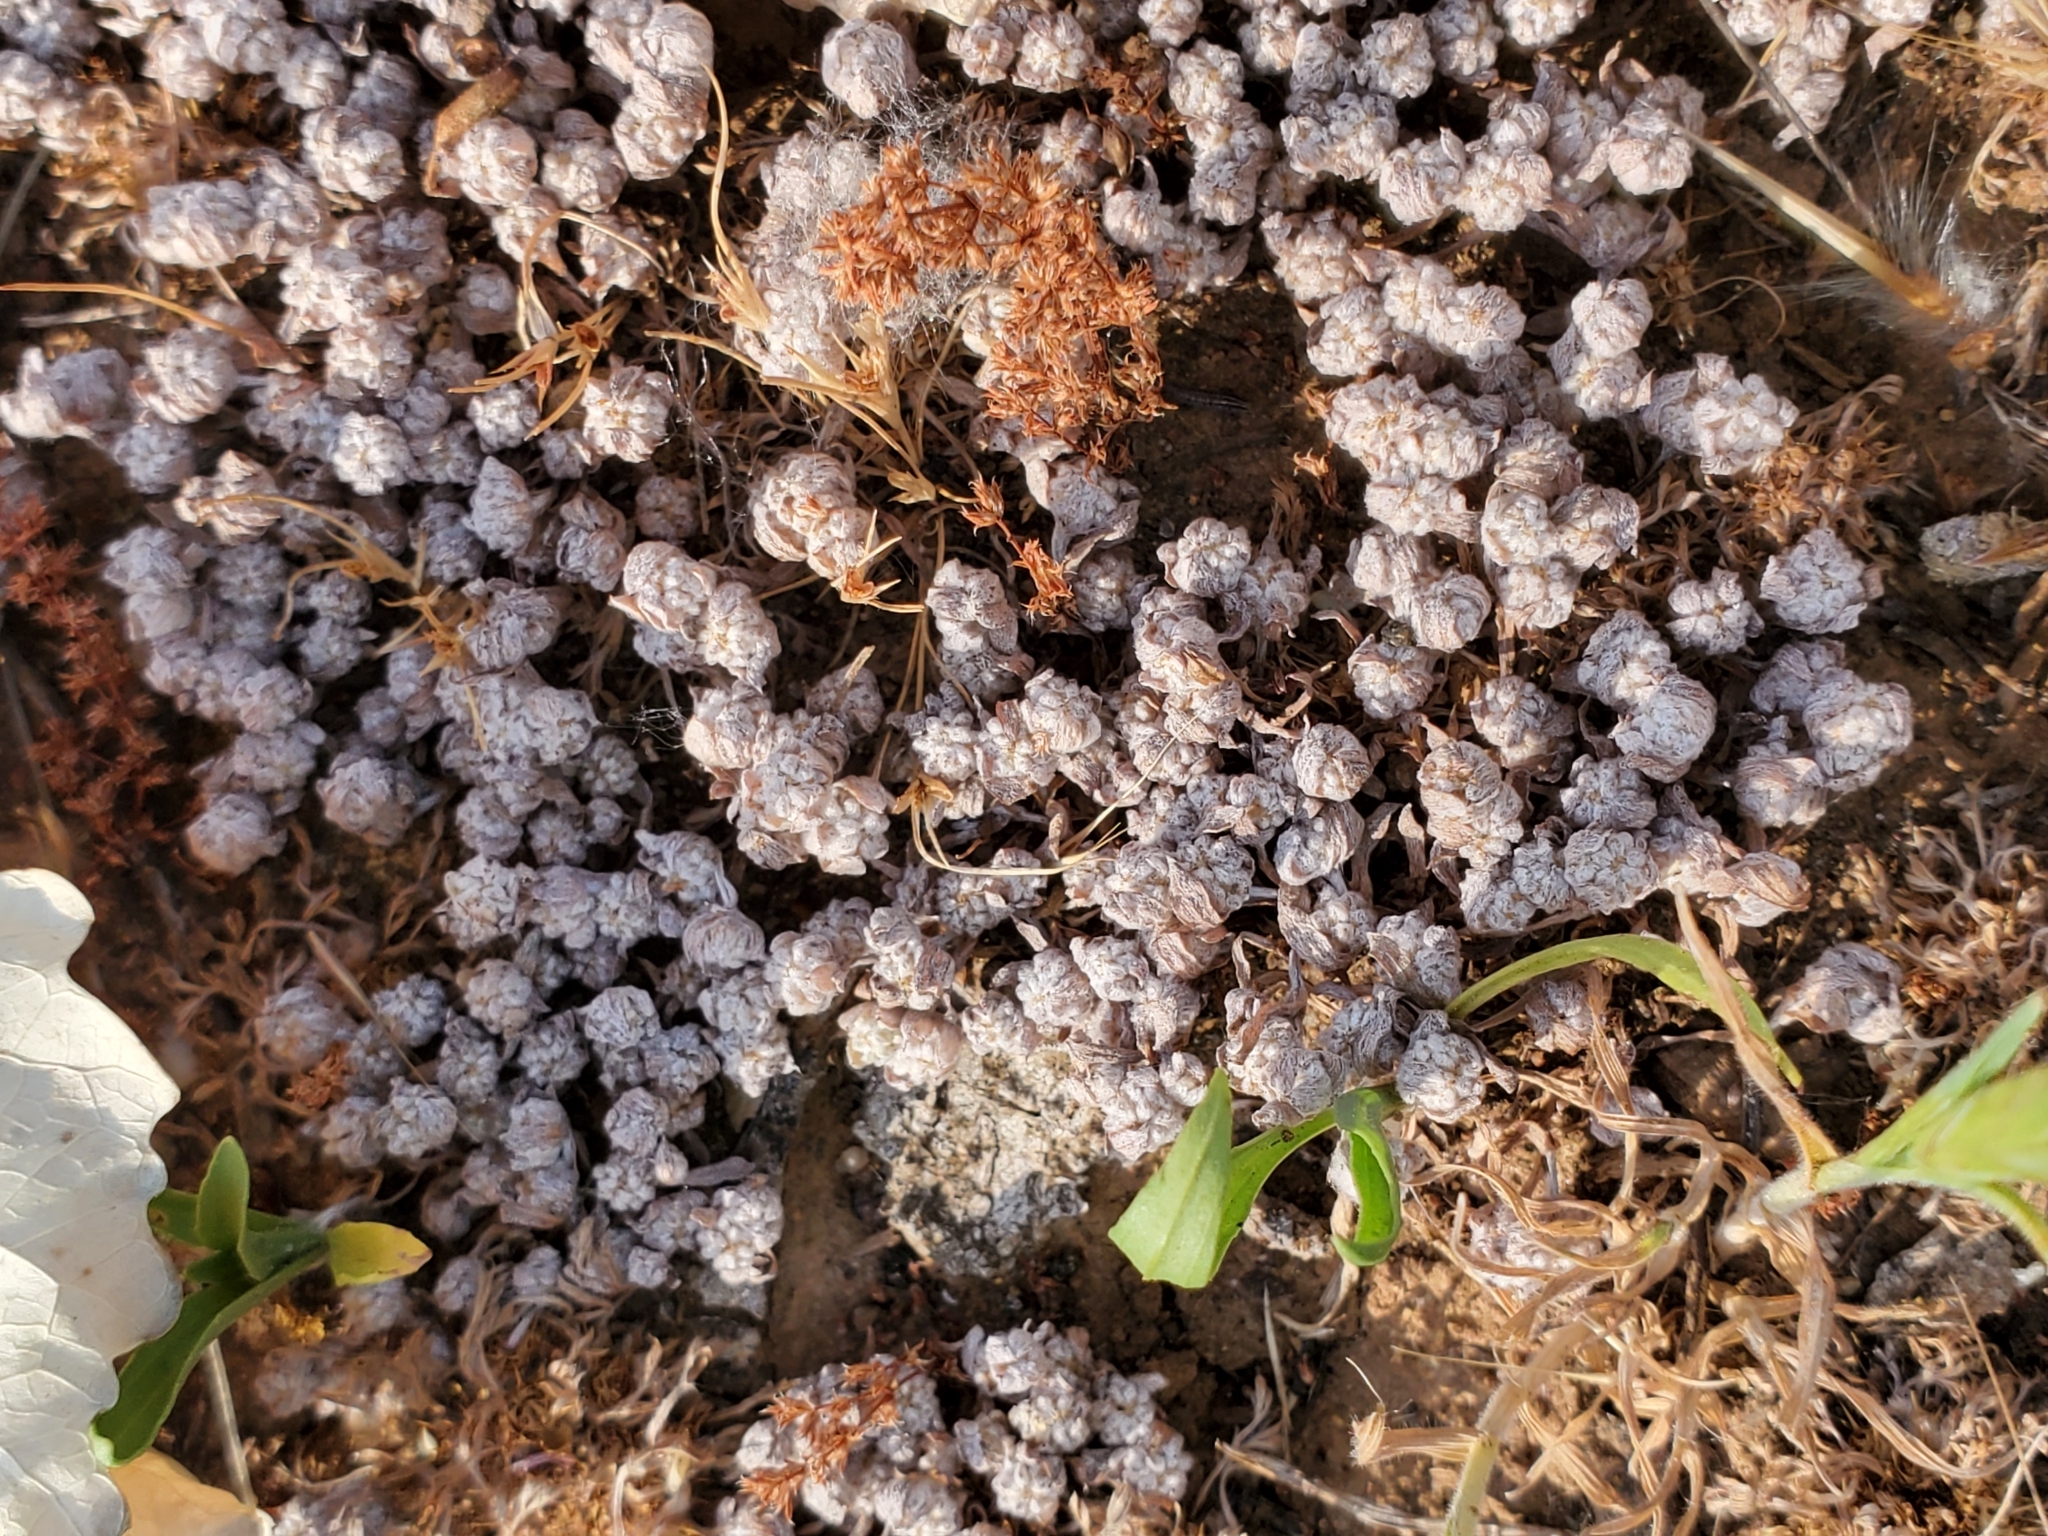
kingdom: Plantae
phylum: Tracheophyta
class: Magnoliopsida
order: Asterales
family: Asteraceae
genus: Psilocarphus
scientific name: Psilocarphus brevissimus
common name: Dwarf woollyheads
